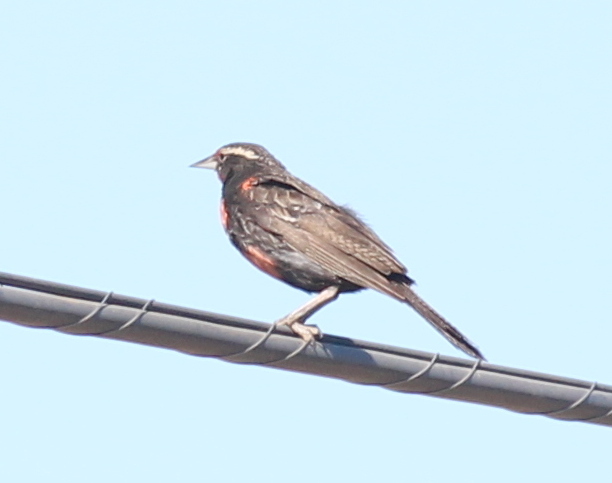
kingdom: Animalia
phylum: Chordata
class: Aves
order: Passeriformes
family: Icteridae
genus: Sturnella
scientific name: Sturnella loyca
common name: Long-tailed meadowlark
